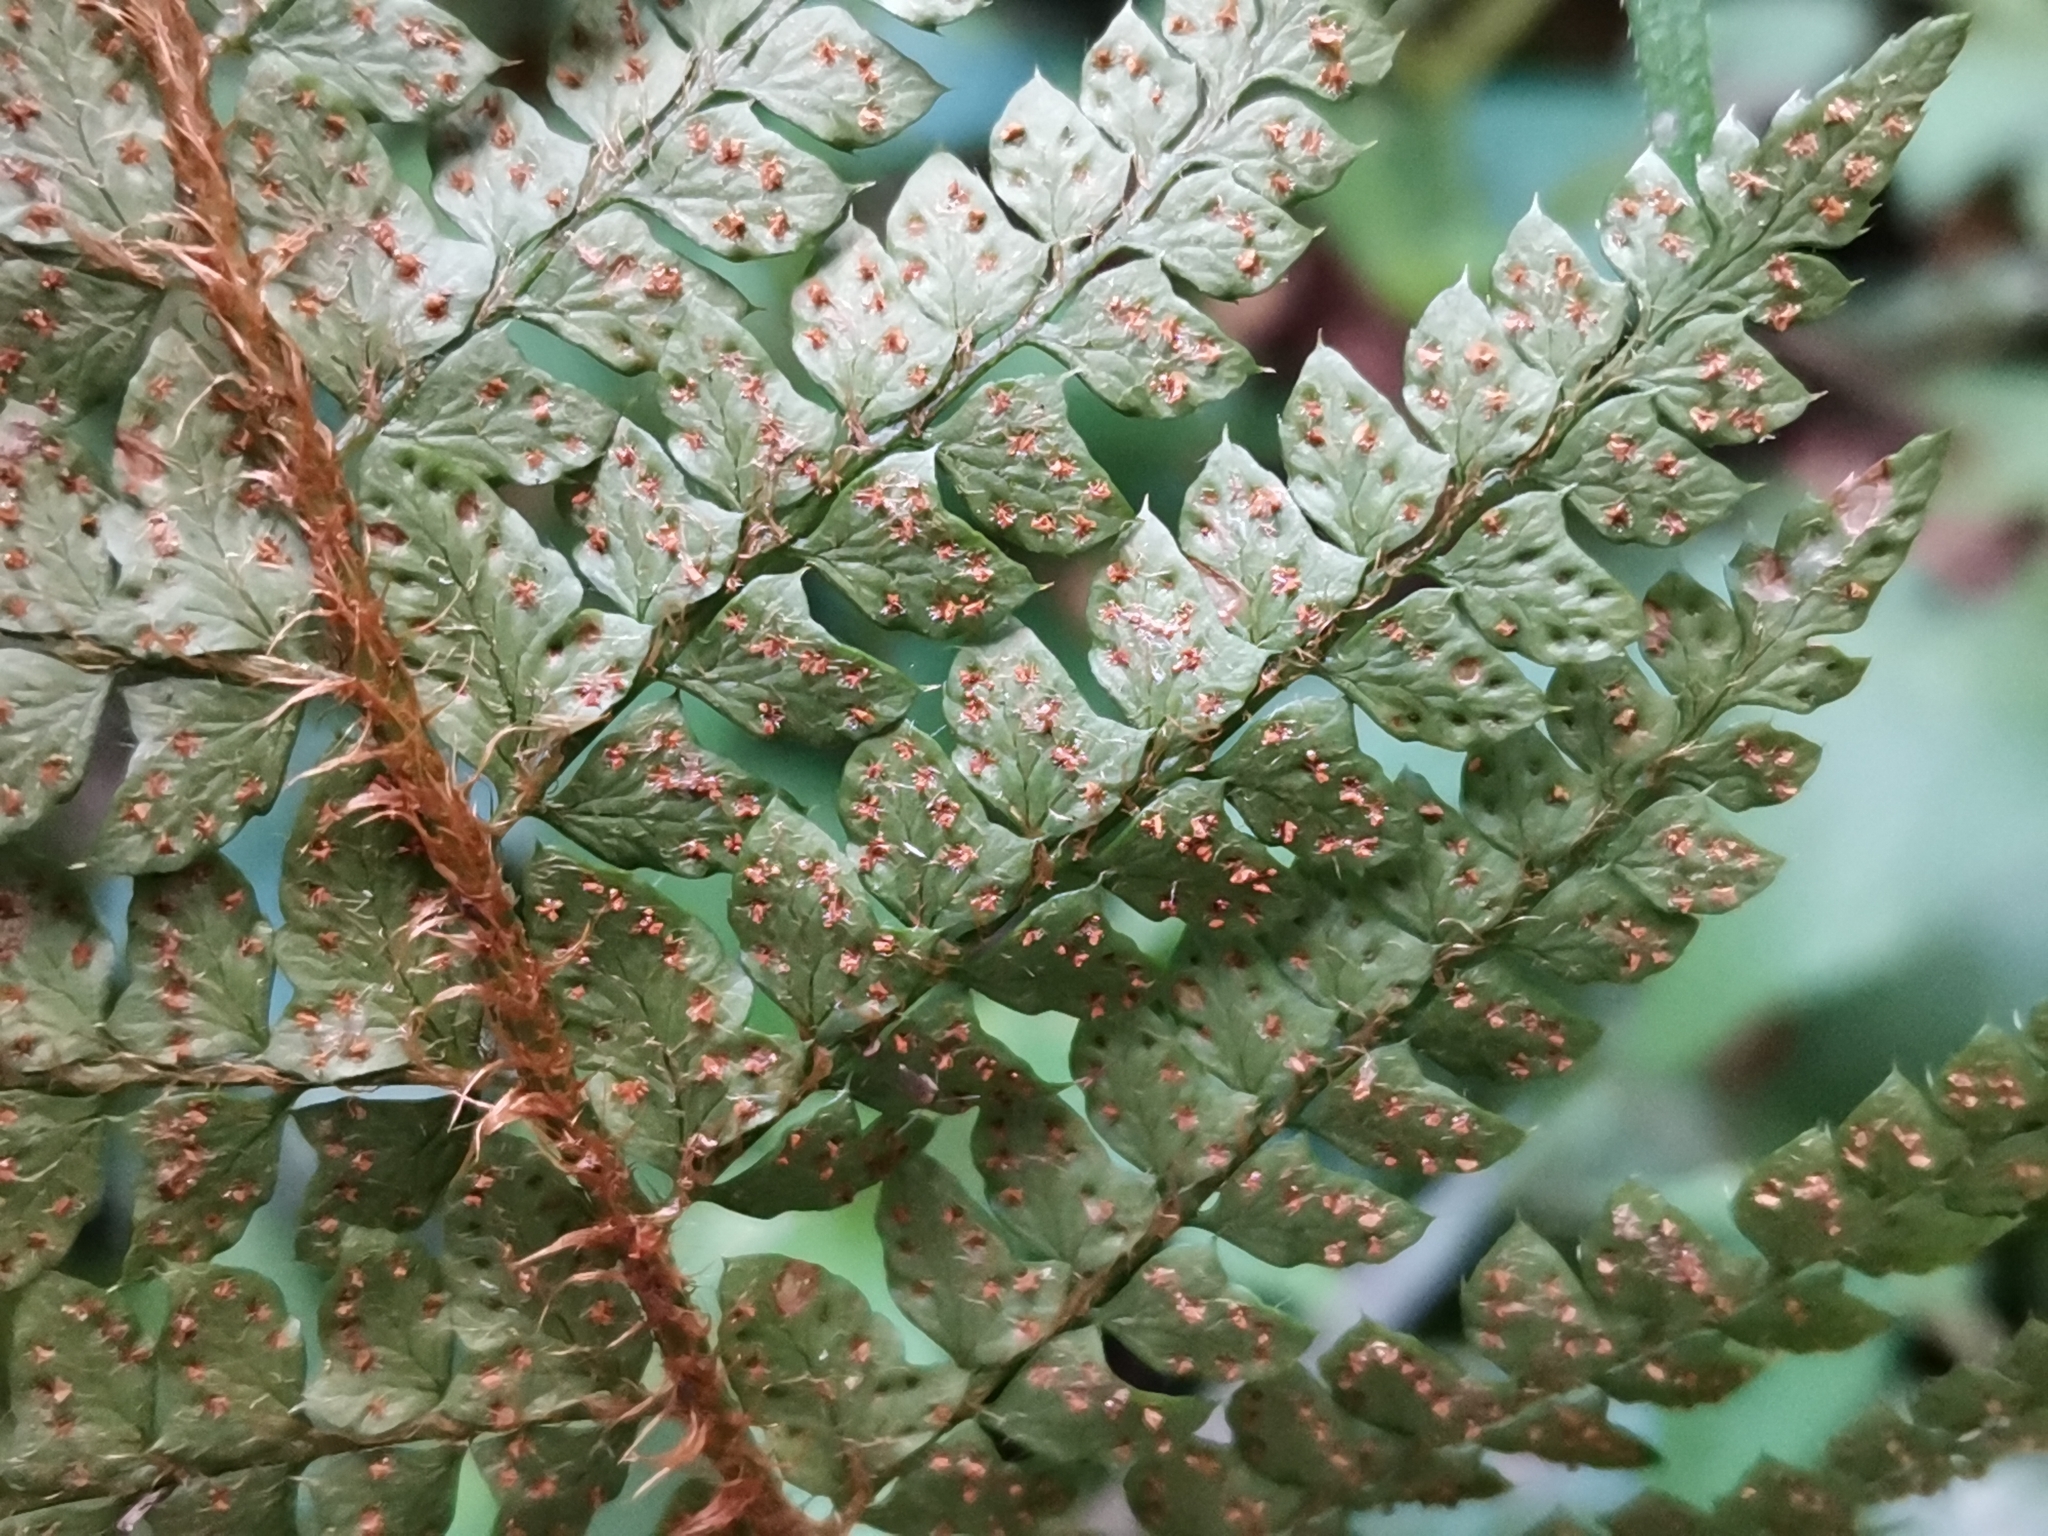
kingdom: Plantae
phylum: Tracheophyta
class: Polypodiopsida
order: Polypodiales
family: Dryopteridaceae
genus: Polystichum
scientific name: Polystichum luctuosum
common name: Korean rockfern
